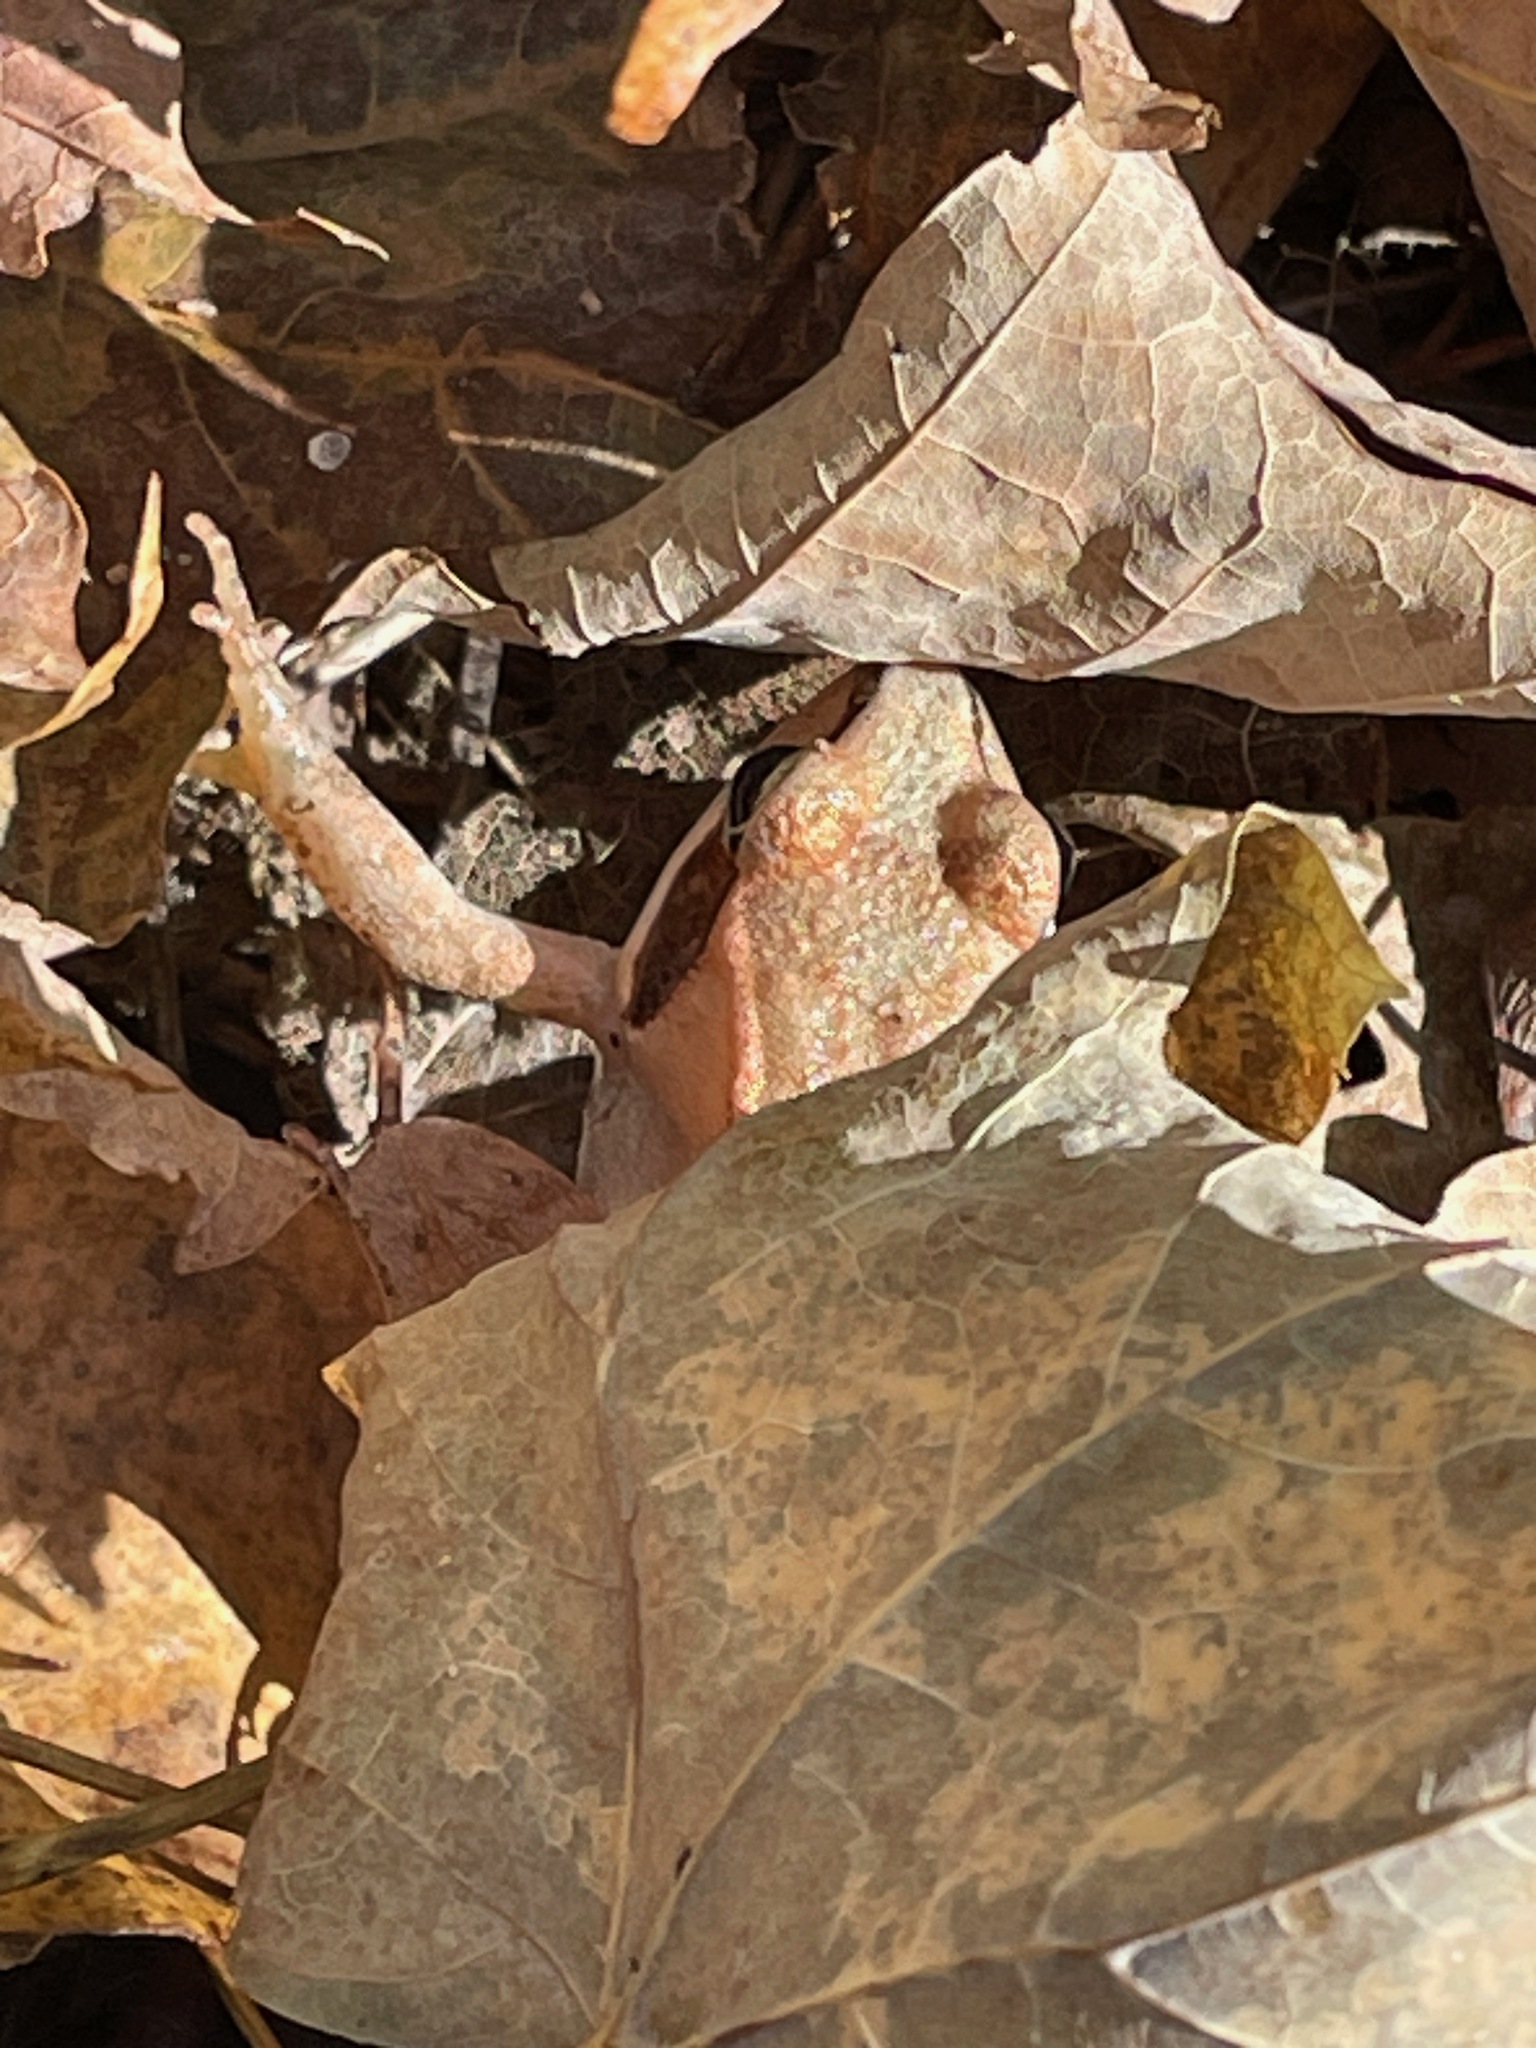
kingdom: Animalia
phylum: Chordata
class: Amphibia
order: Anura
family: Ranidae
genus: Lithobates
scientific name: Lithobates sylvaticus
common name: Wood frog
